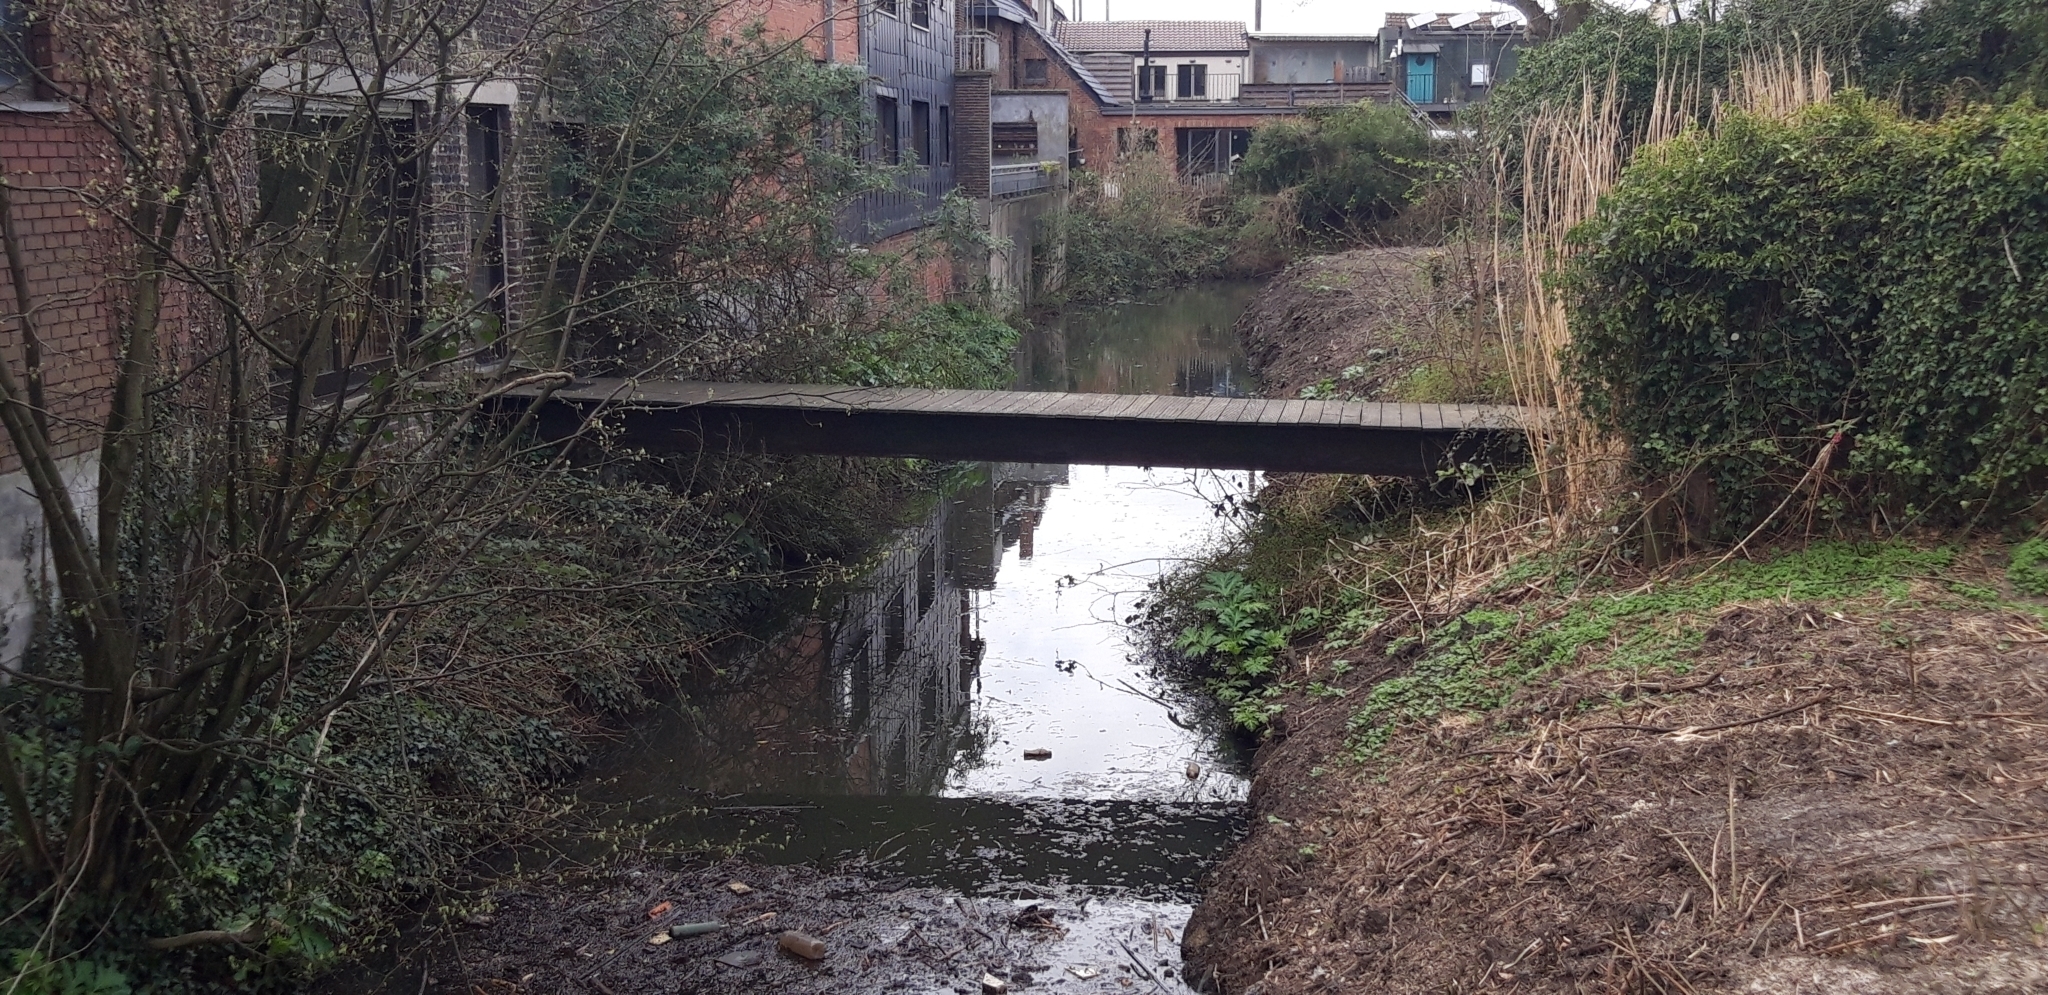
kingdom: Plantae
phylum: Tracheophyta
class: Magnoliopsida
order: Apiales
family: Apiaceae
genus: Heracleum
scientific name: Heracleum mantegazzianum
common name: Giant hogweed
